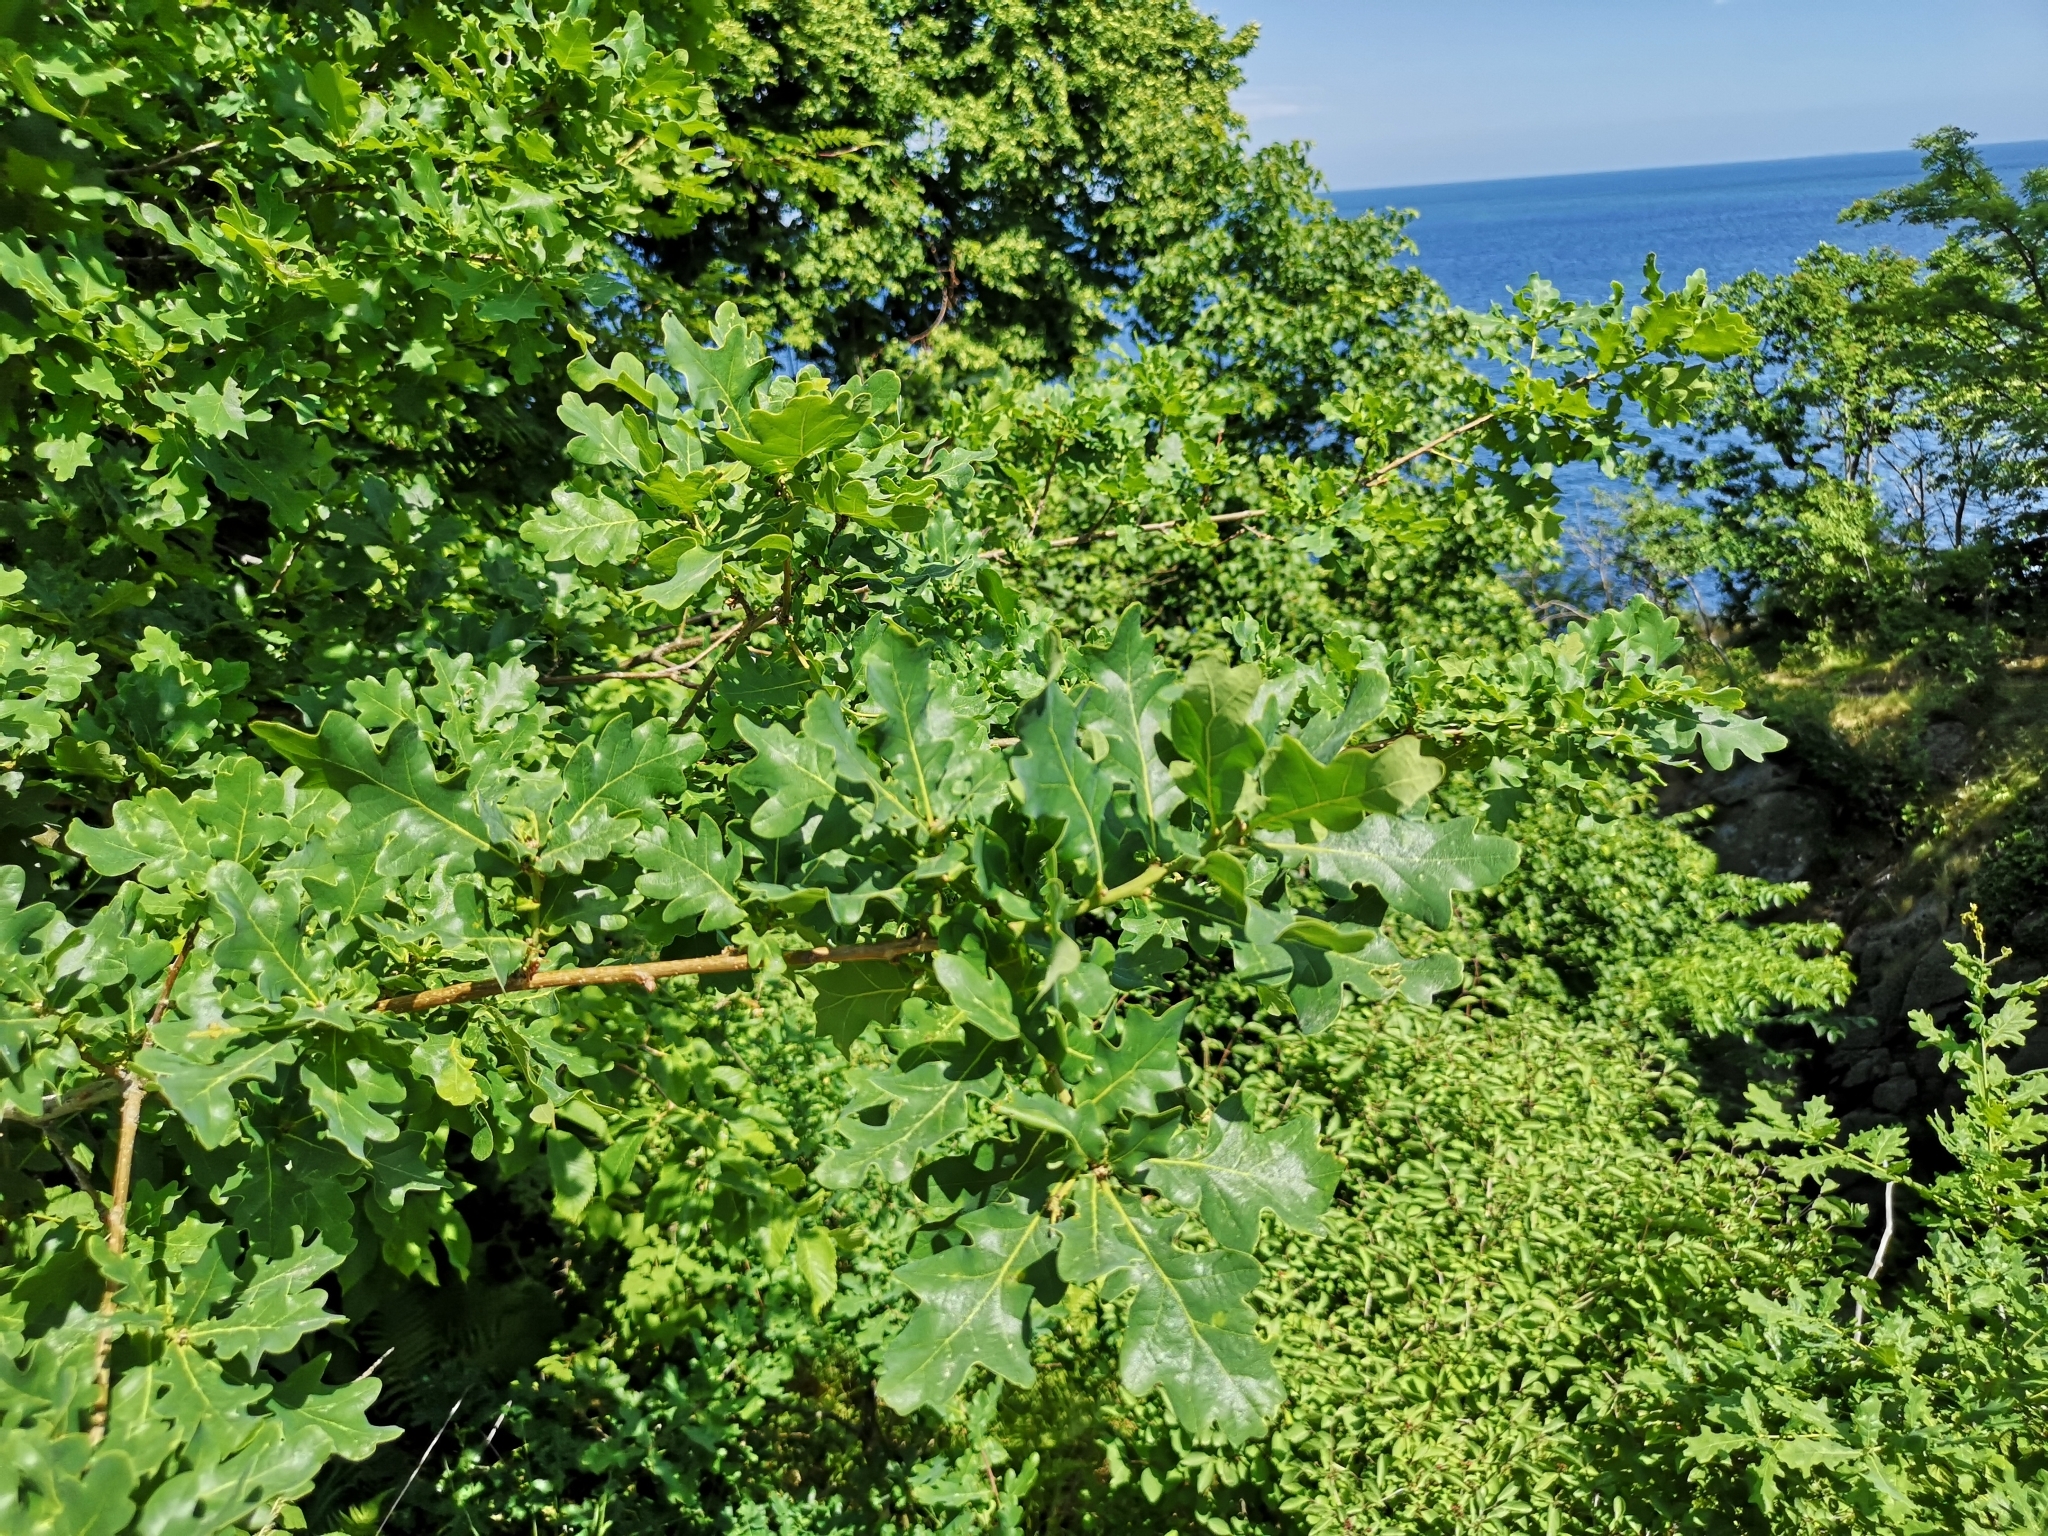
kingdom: Plantae
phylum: Tracheophyta
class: Magnoliopsida
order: Fagales
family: Fagaceae
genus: Quercus
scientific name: Quercus robur
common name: Pedunculate oak
